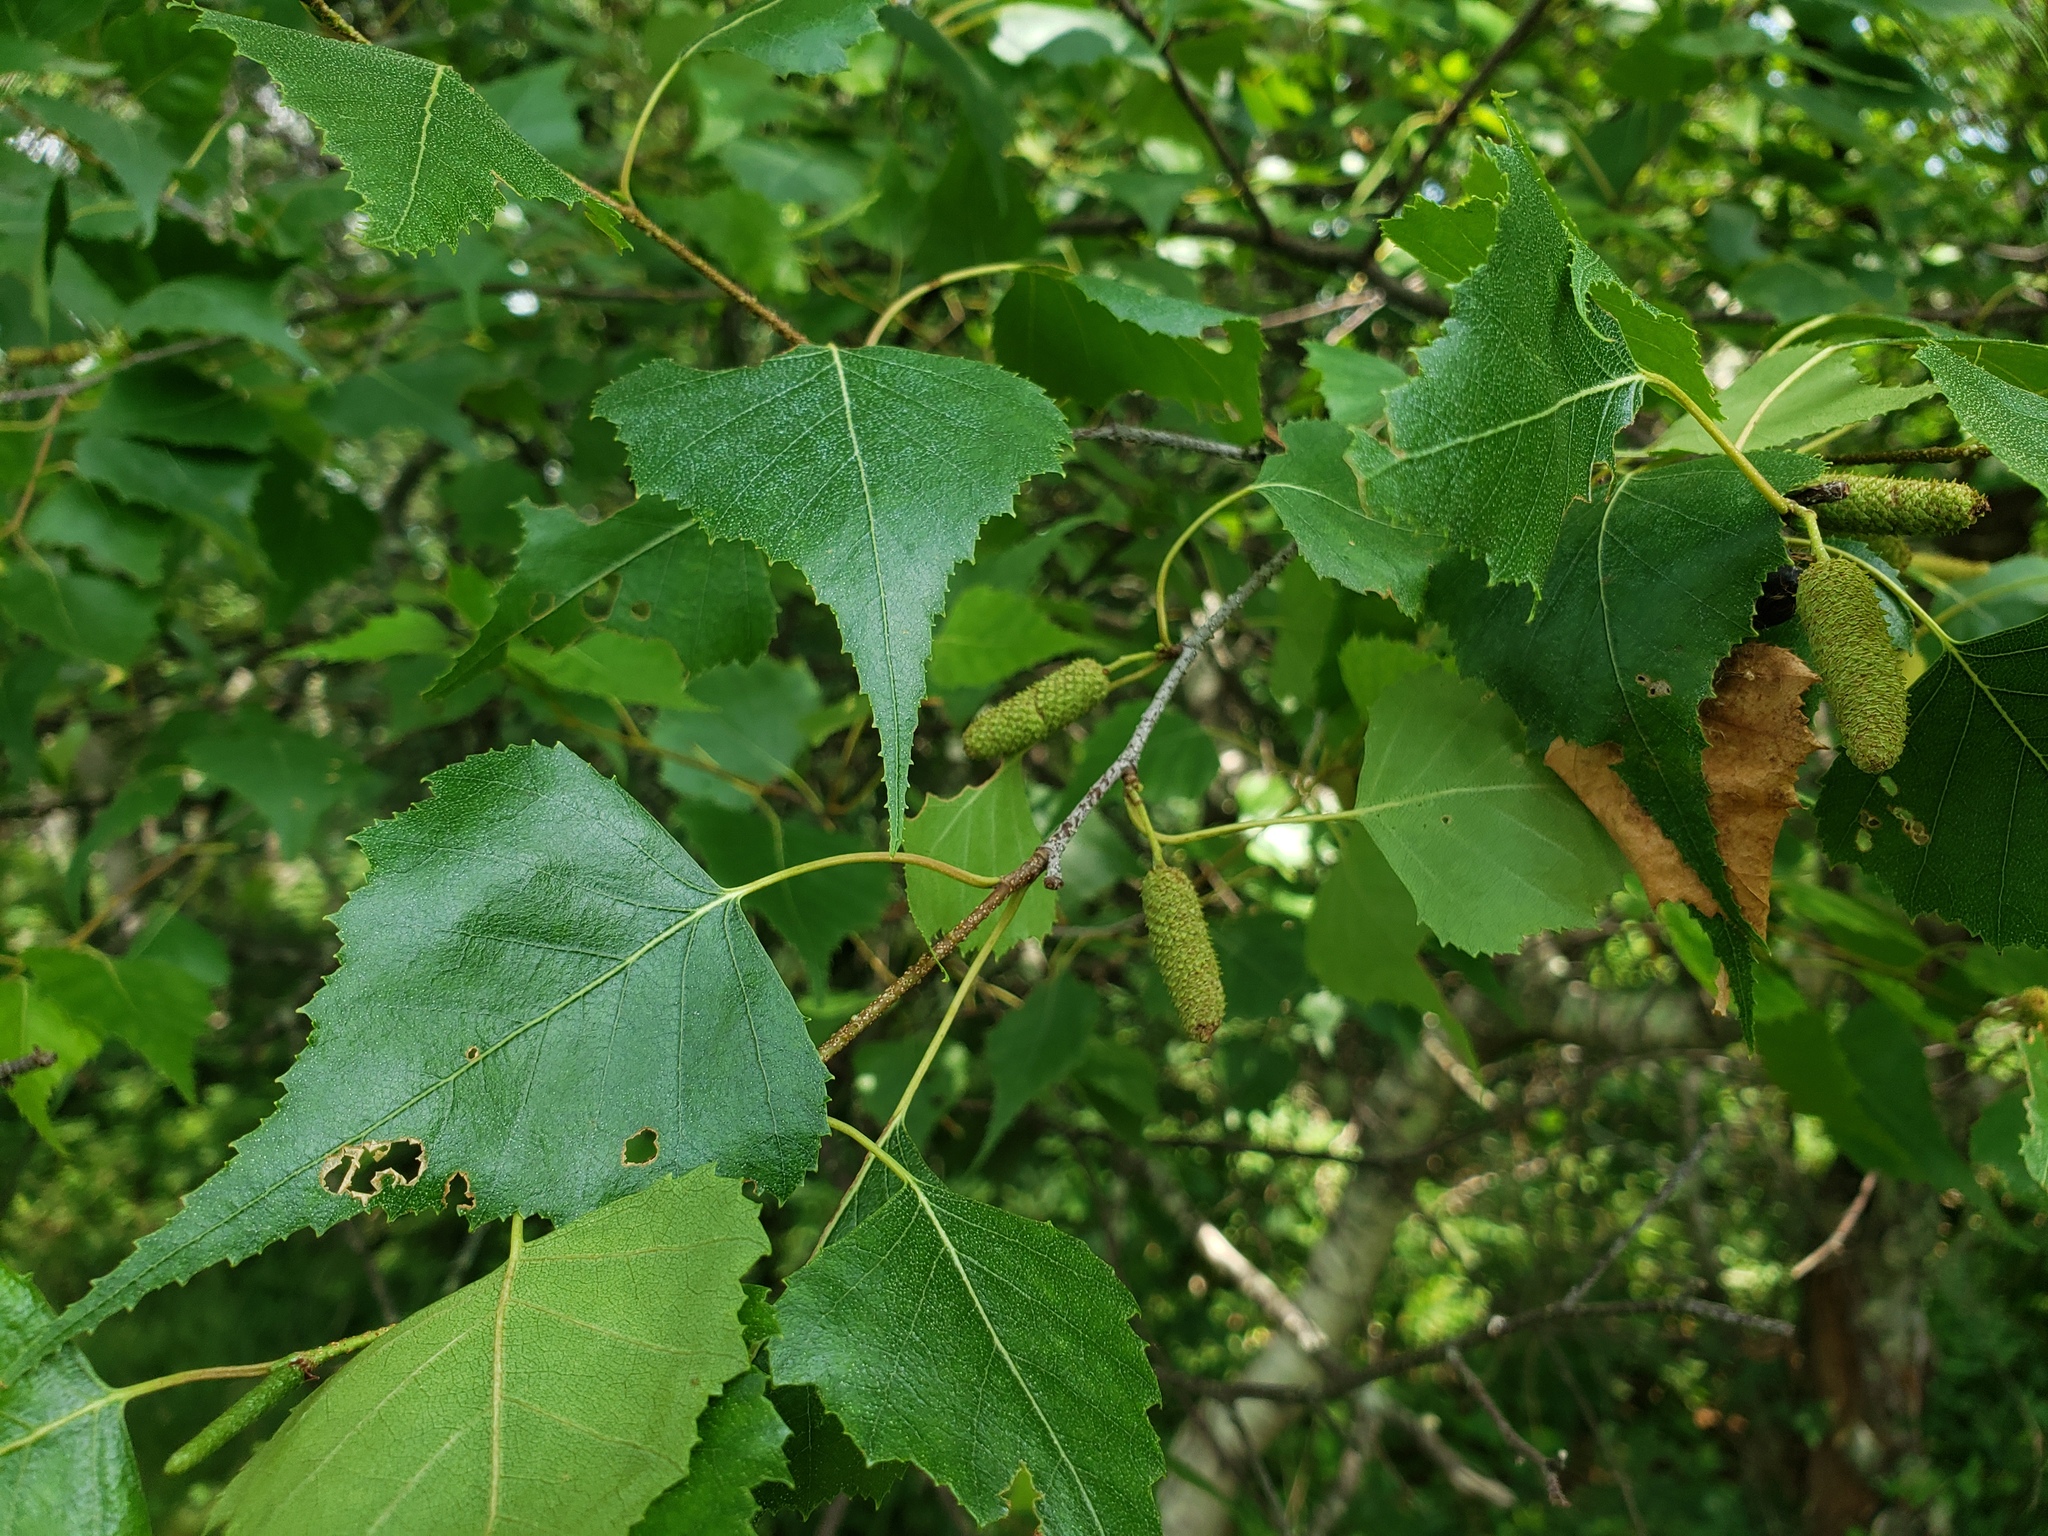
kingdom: Plantae
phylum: Tracheophyta
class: Magnoliopsida
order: Fagales
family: Betulaceae
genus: Betula
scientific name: Betula populifolia
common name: Fire birch
